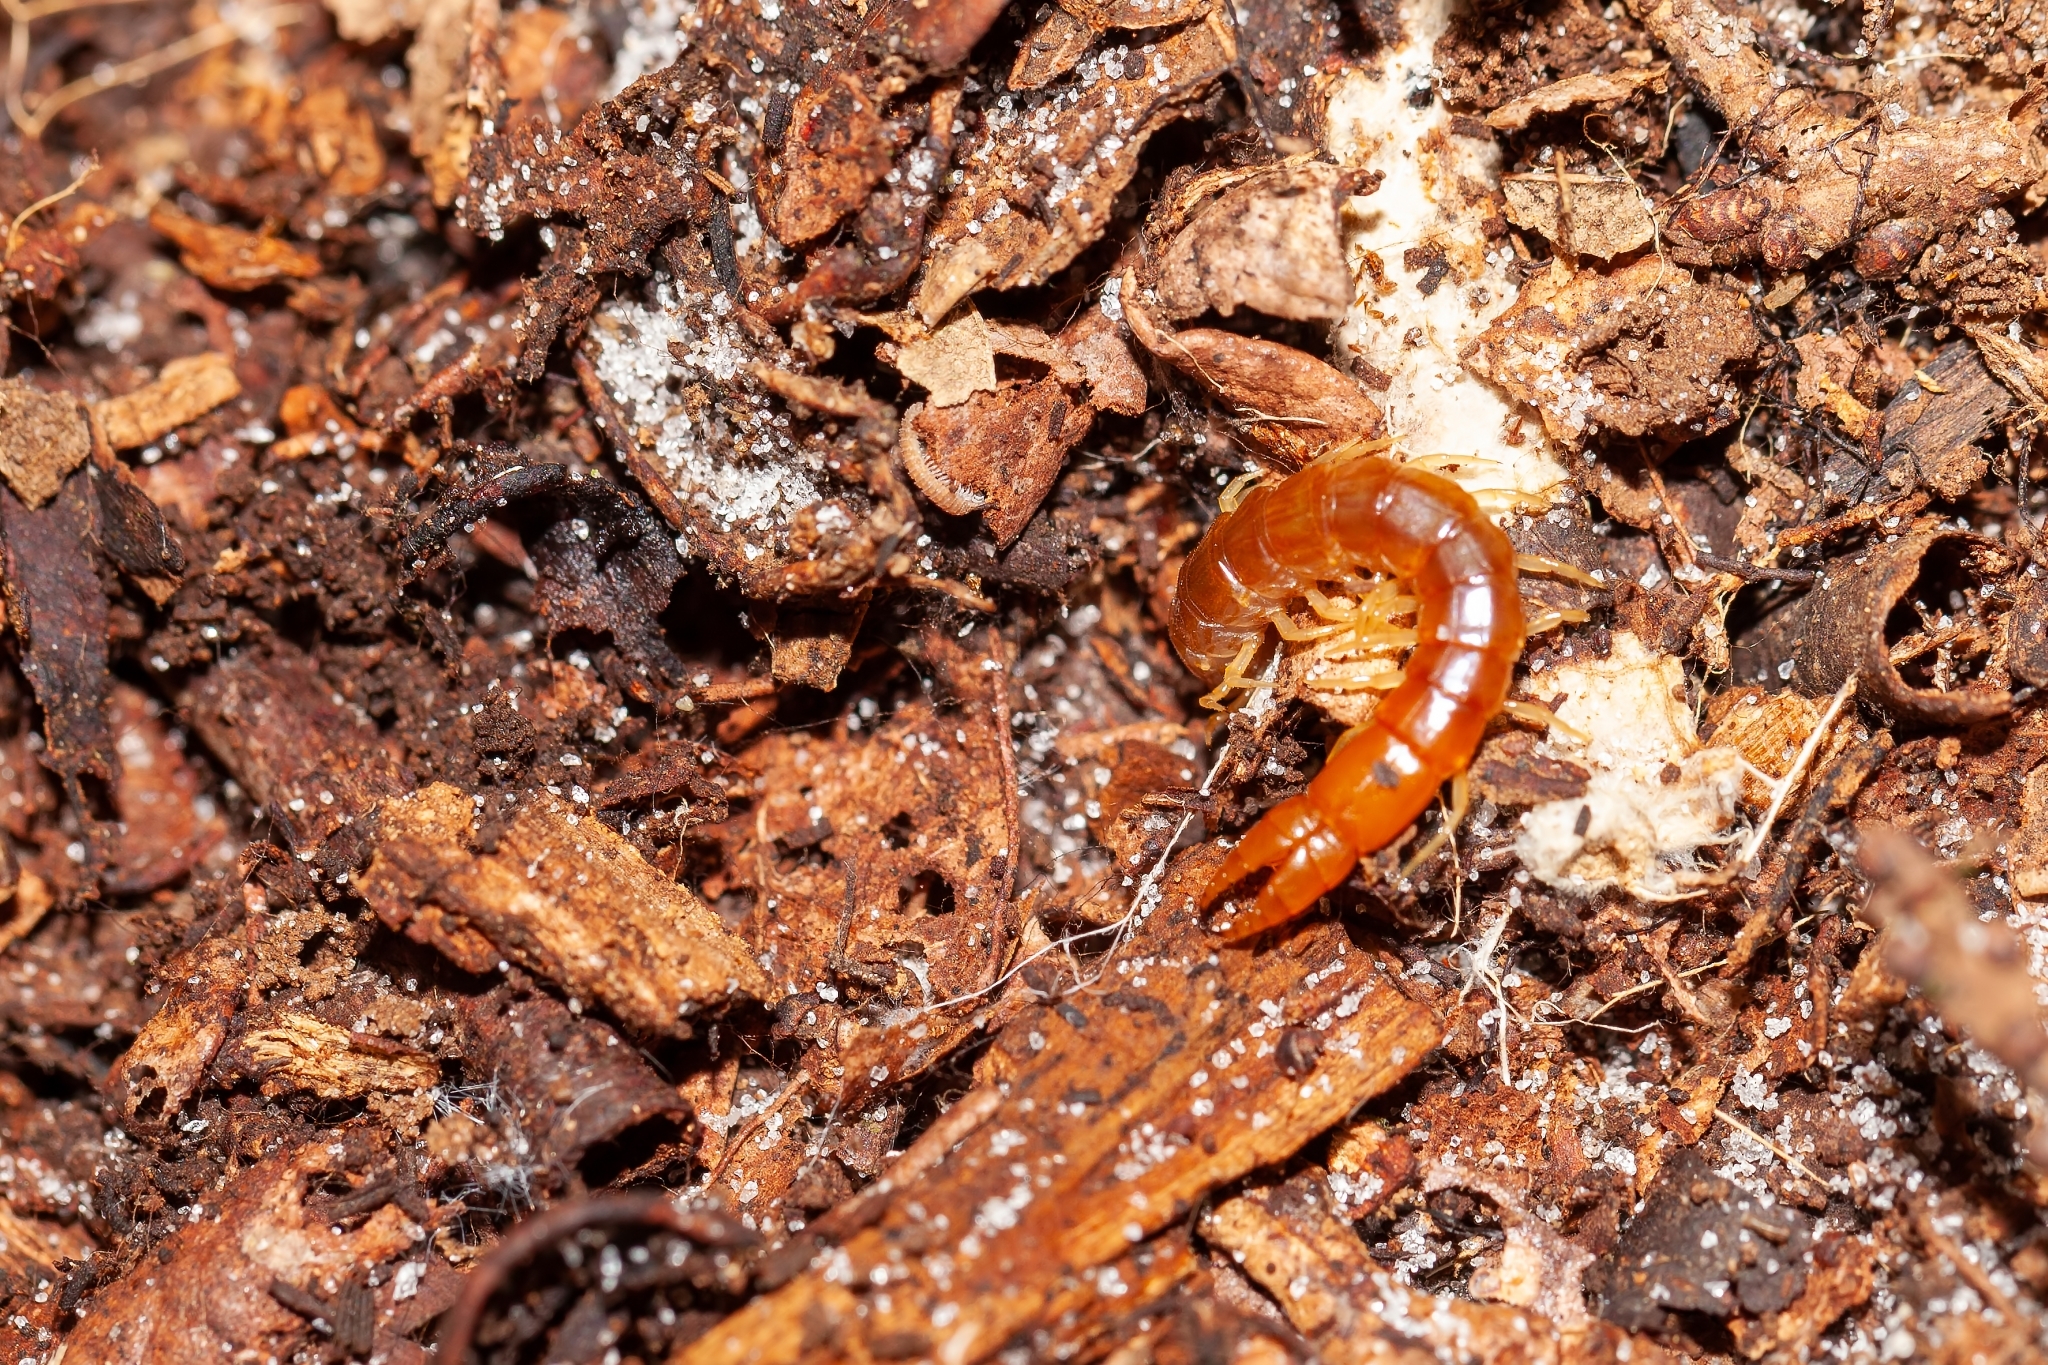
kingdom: Animalia
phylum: Arthropoda
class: Chilopoda
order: Scolopendromorpha
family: Cryptopidae
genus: Theatops
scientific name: Theatops posticus
